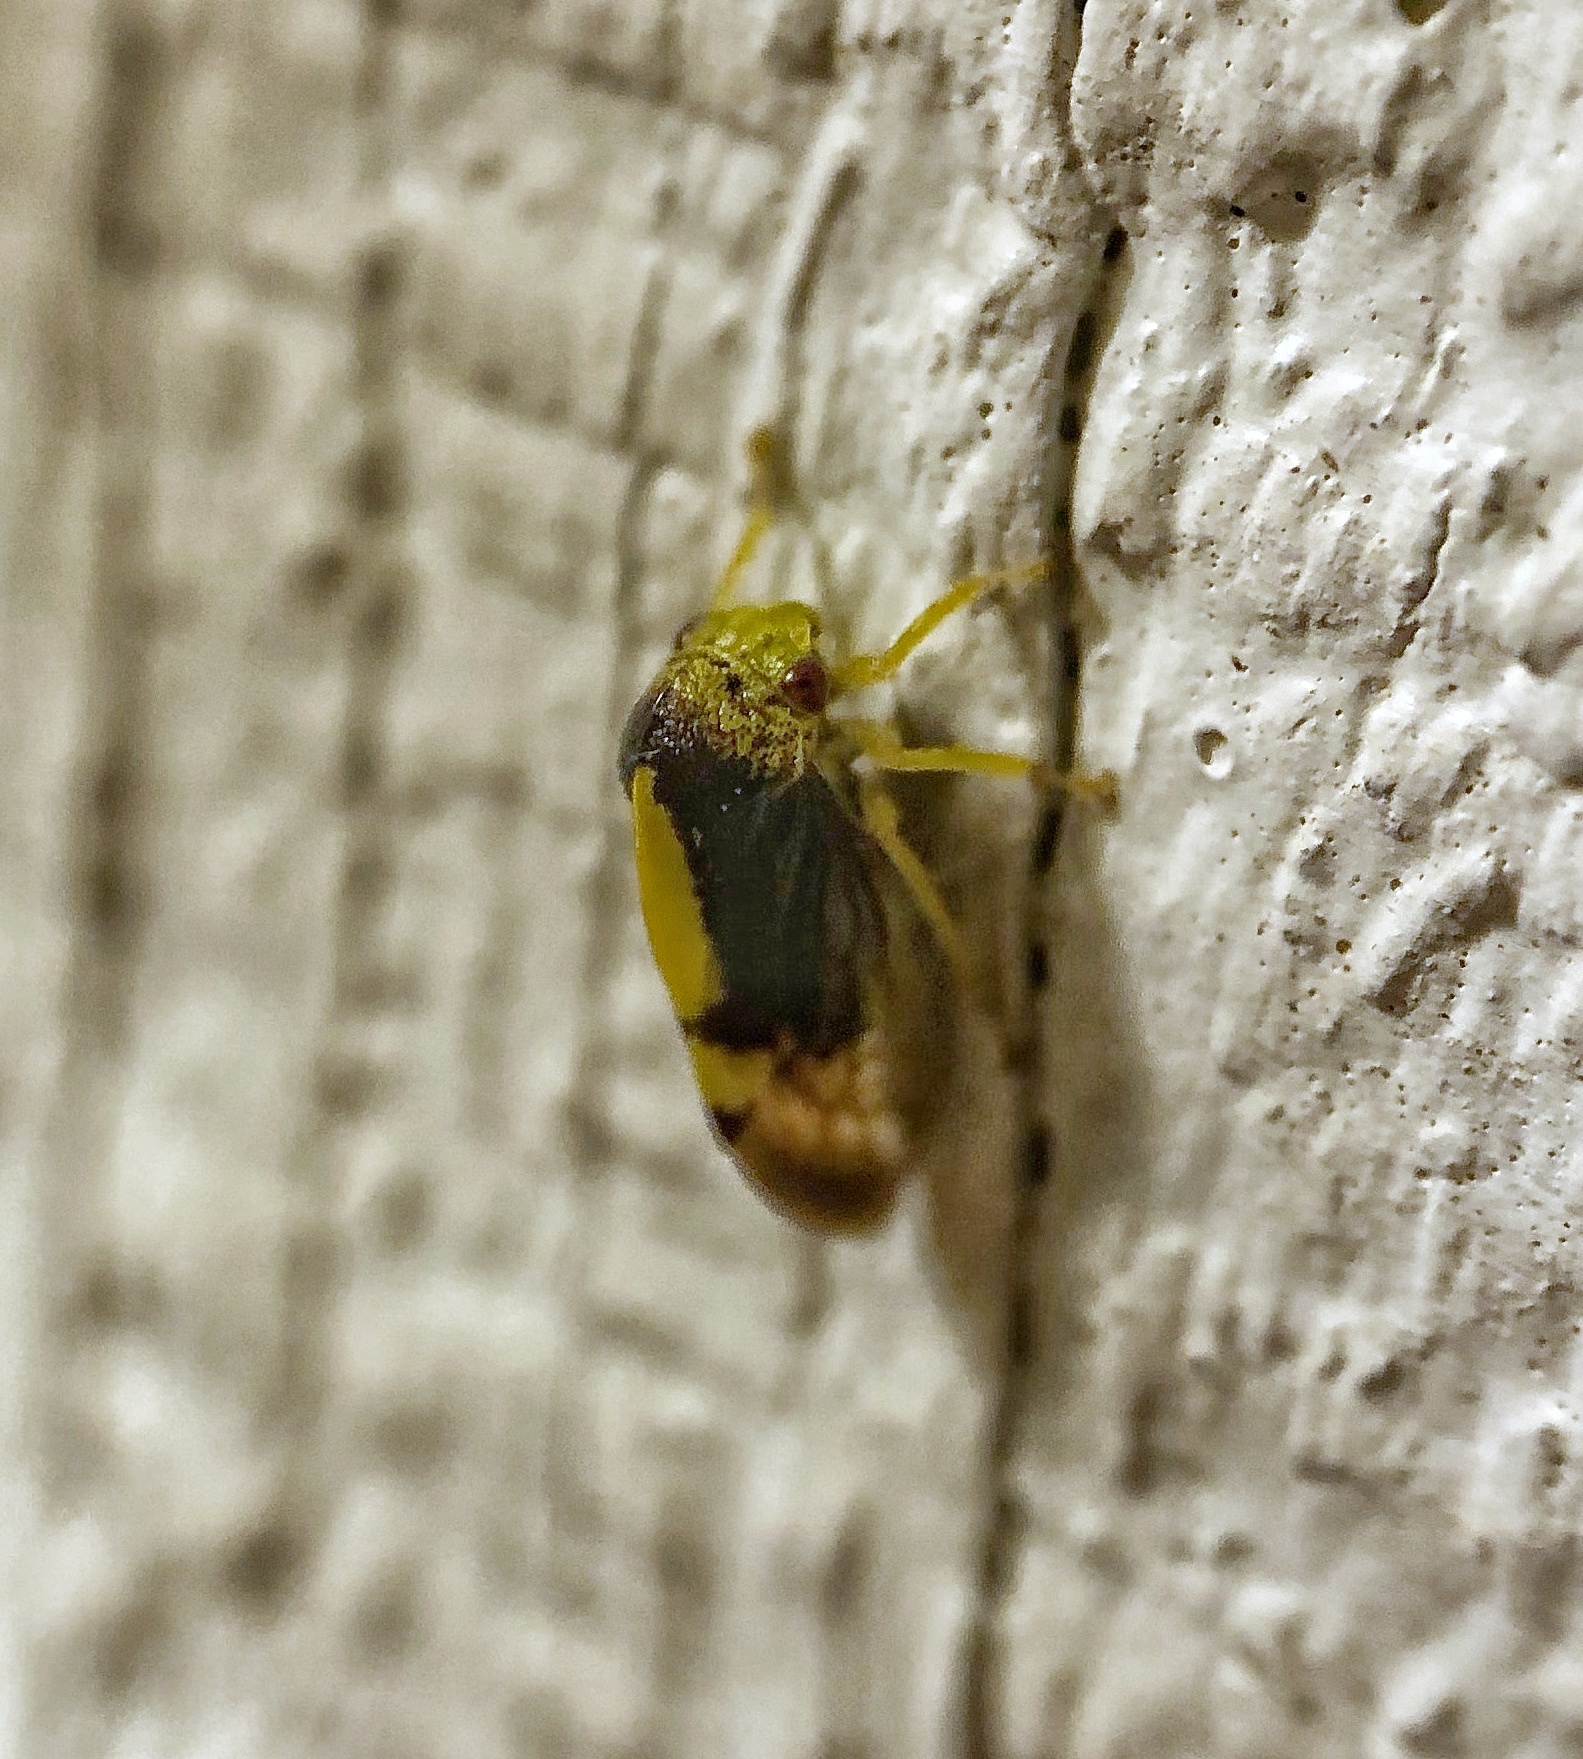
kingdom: Animalia
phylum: Arthropoda
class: Insecta
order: Hemiptera
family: Membracidae
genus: Atymna
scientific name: Atymna querci
